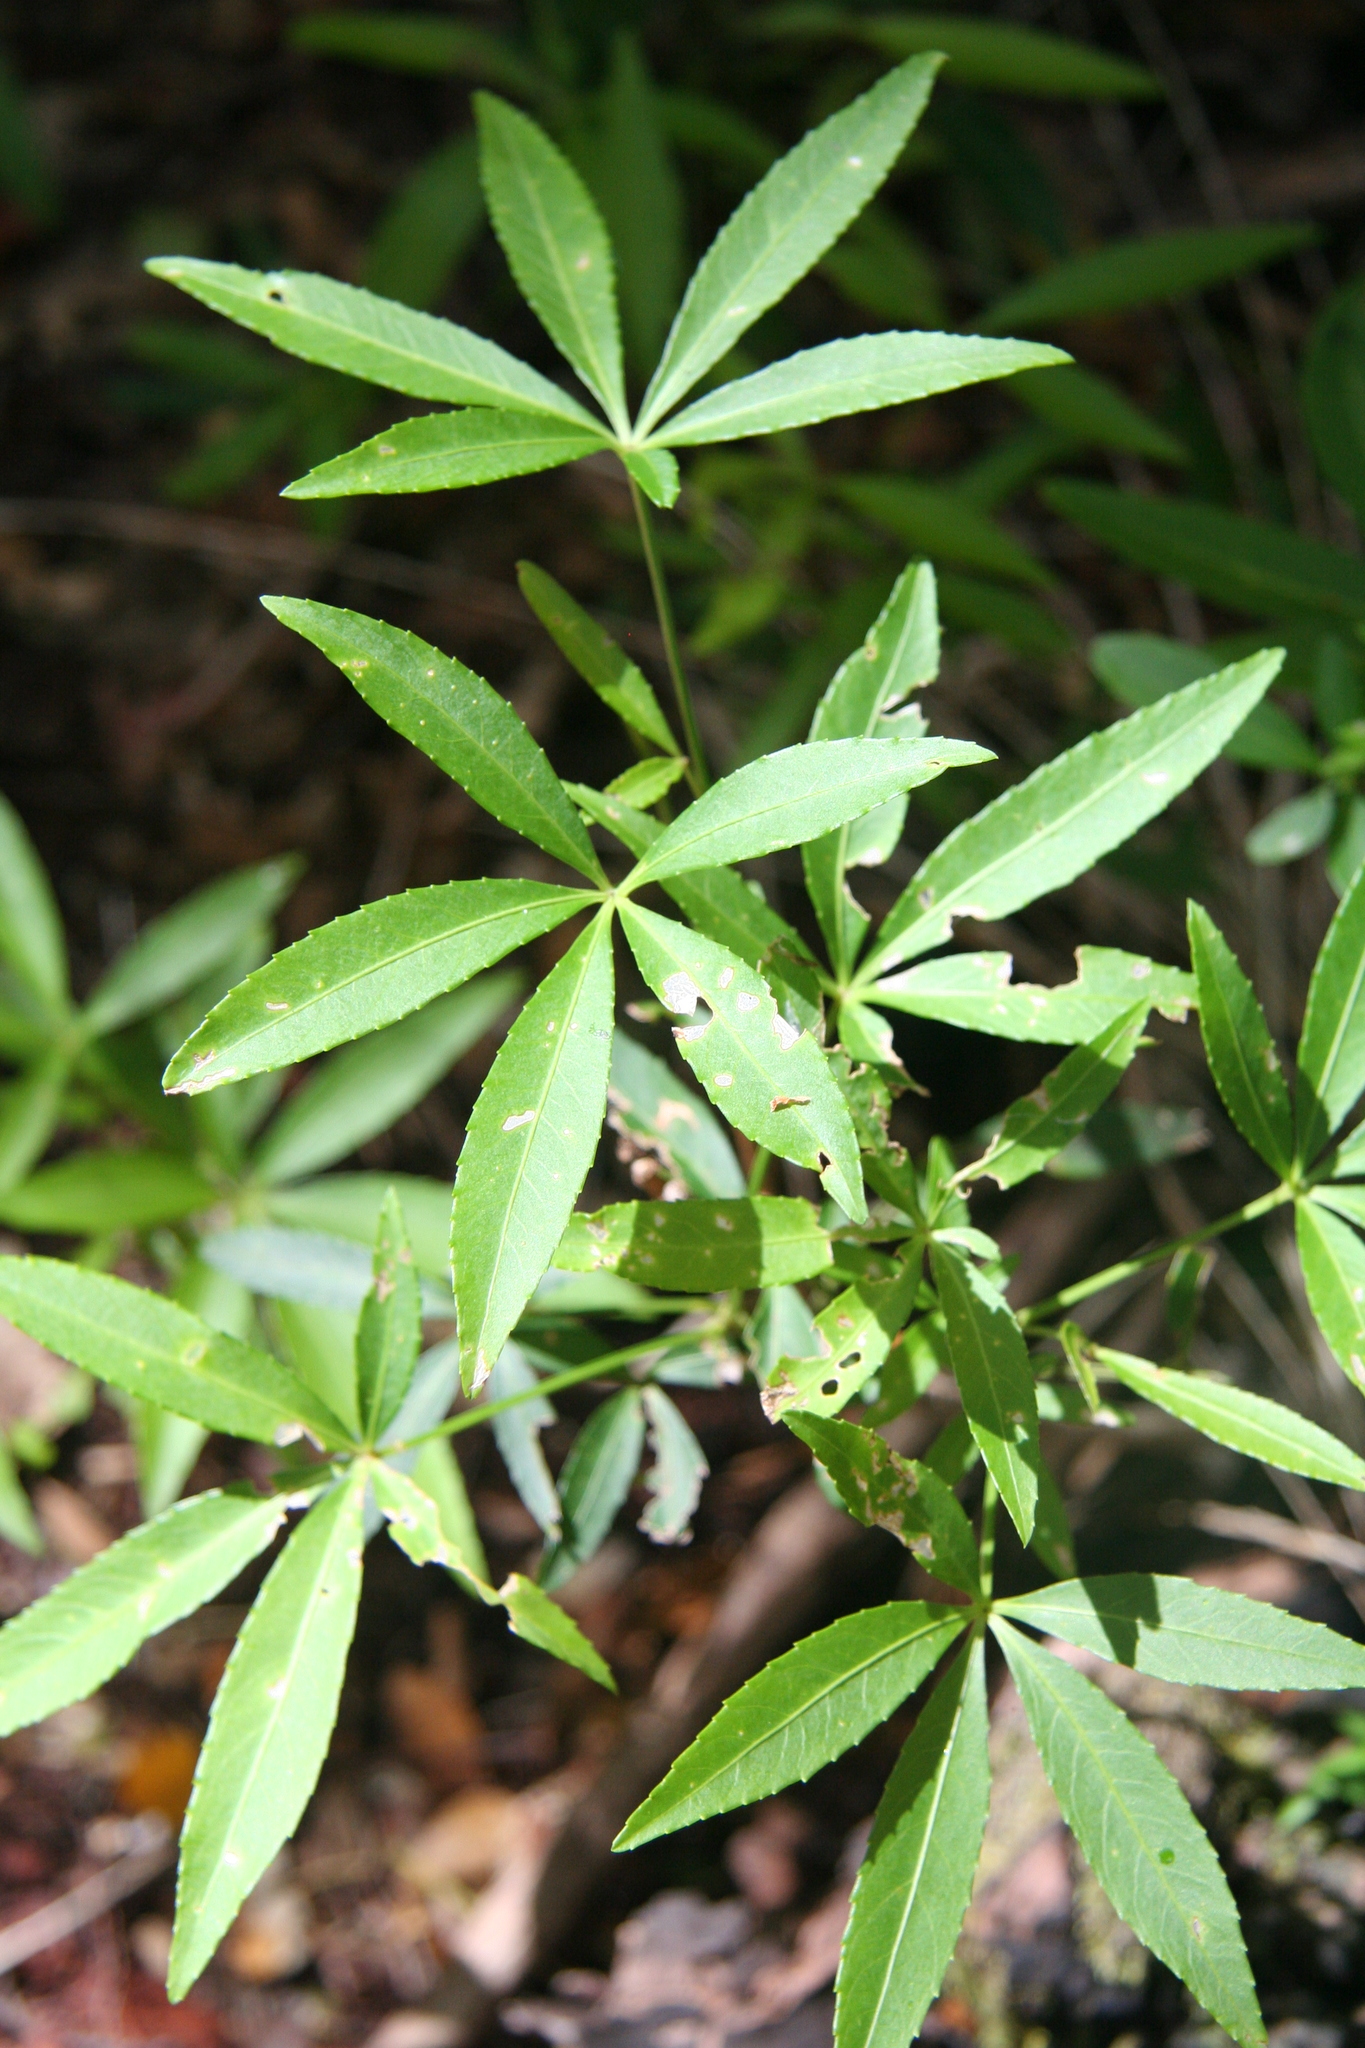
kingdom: Plantae
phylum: Tracheophyta
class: Magnoliopsida
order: Apiales
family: Araliaceae
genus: Raukaua
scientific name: Raukaua laetevirens
